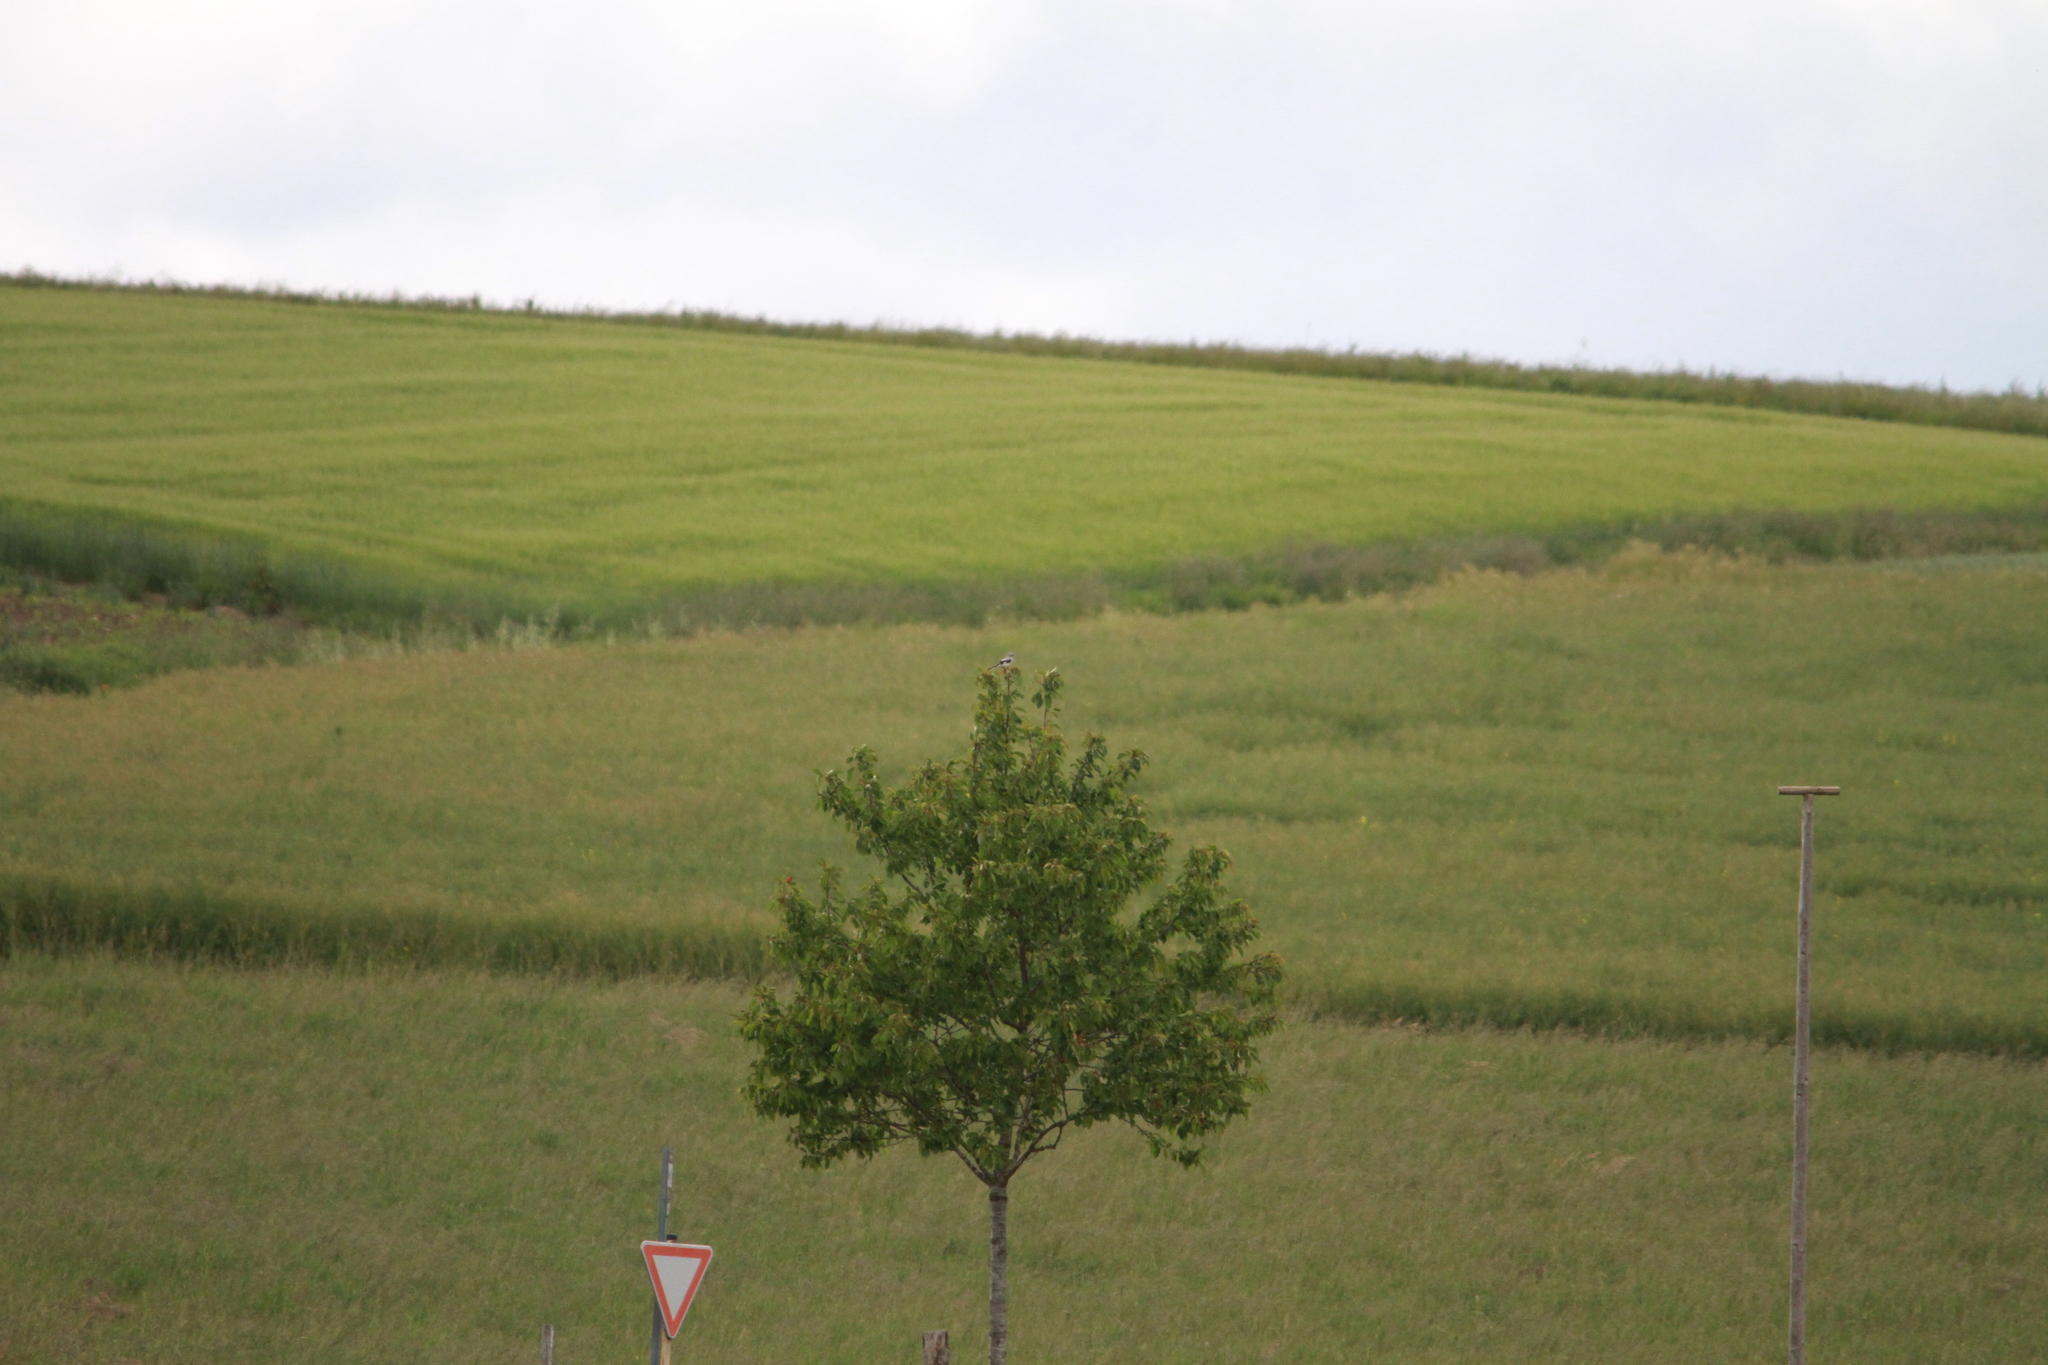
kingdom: Animalia
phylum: Chordata
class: Aves
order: Passeriformes
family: Laniidae
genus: Lanius
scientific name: Lanius excubitor
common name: Great grey shrike
